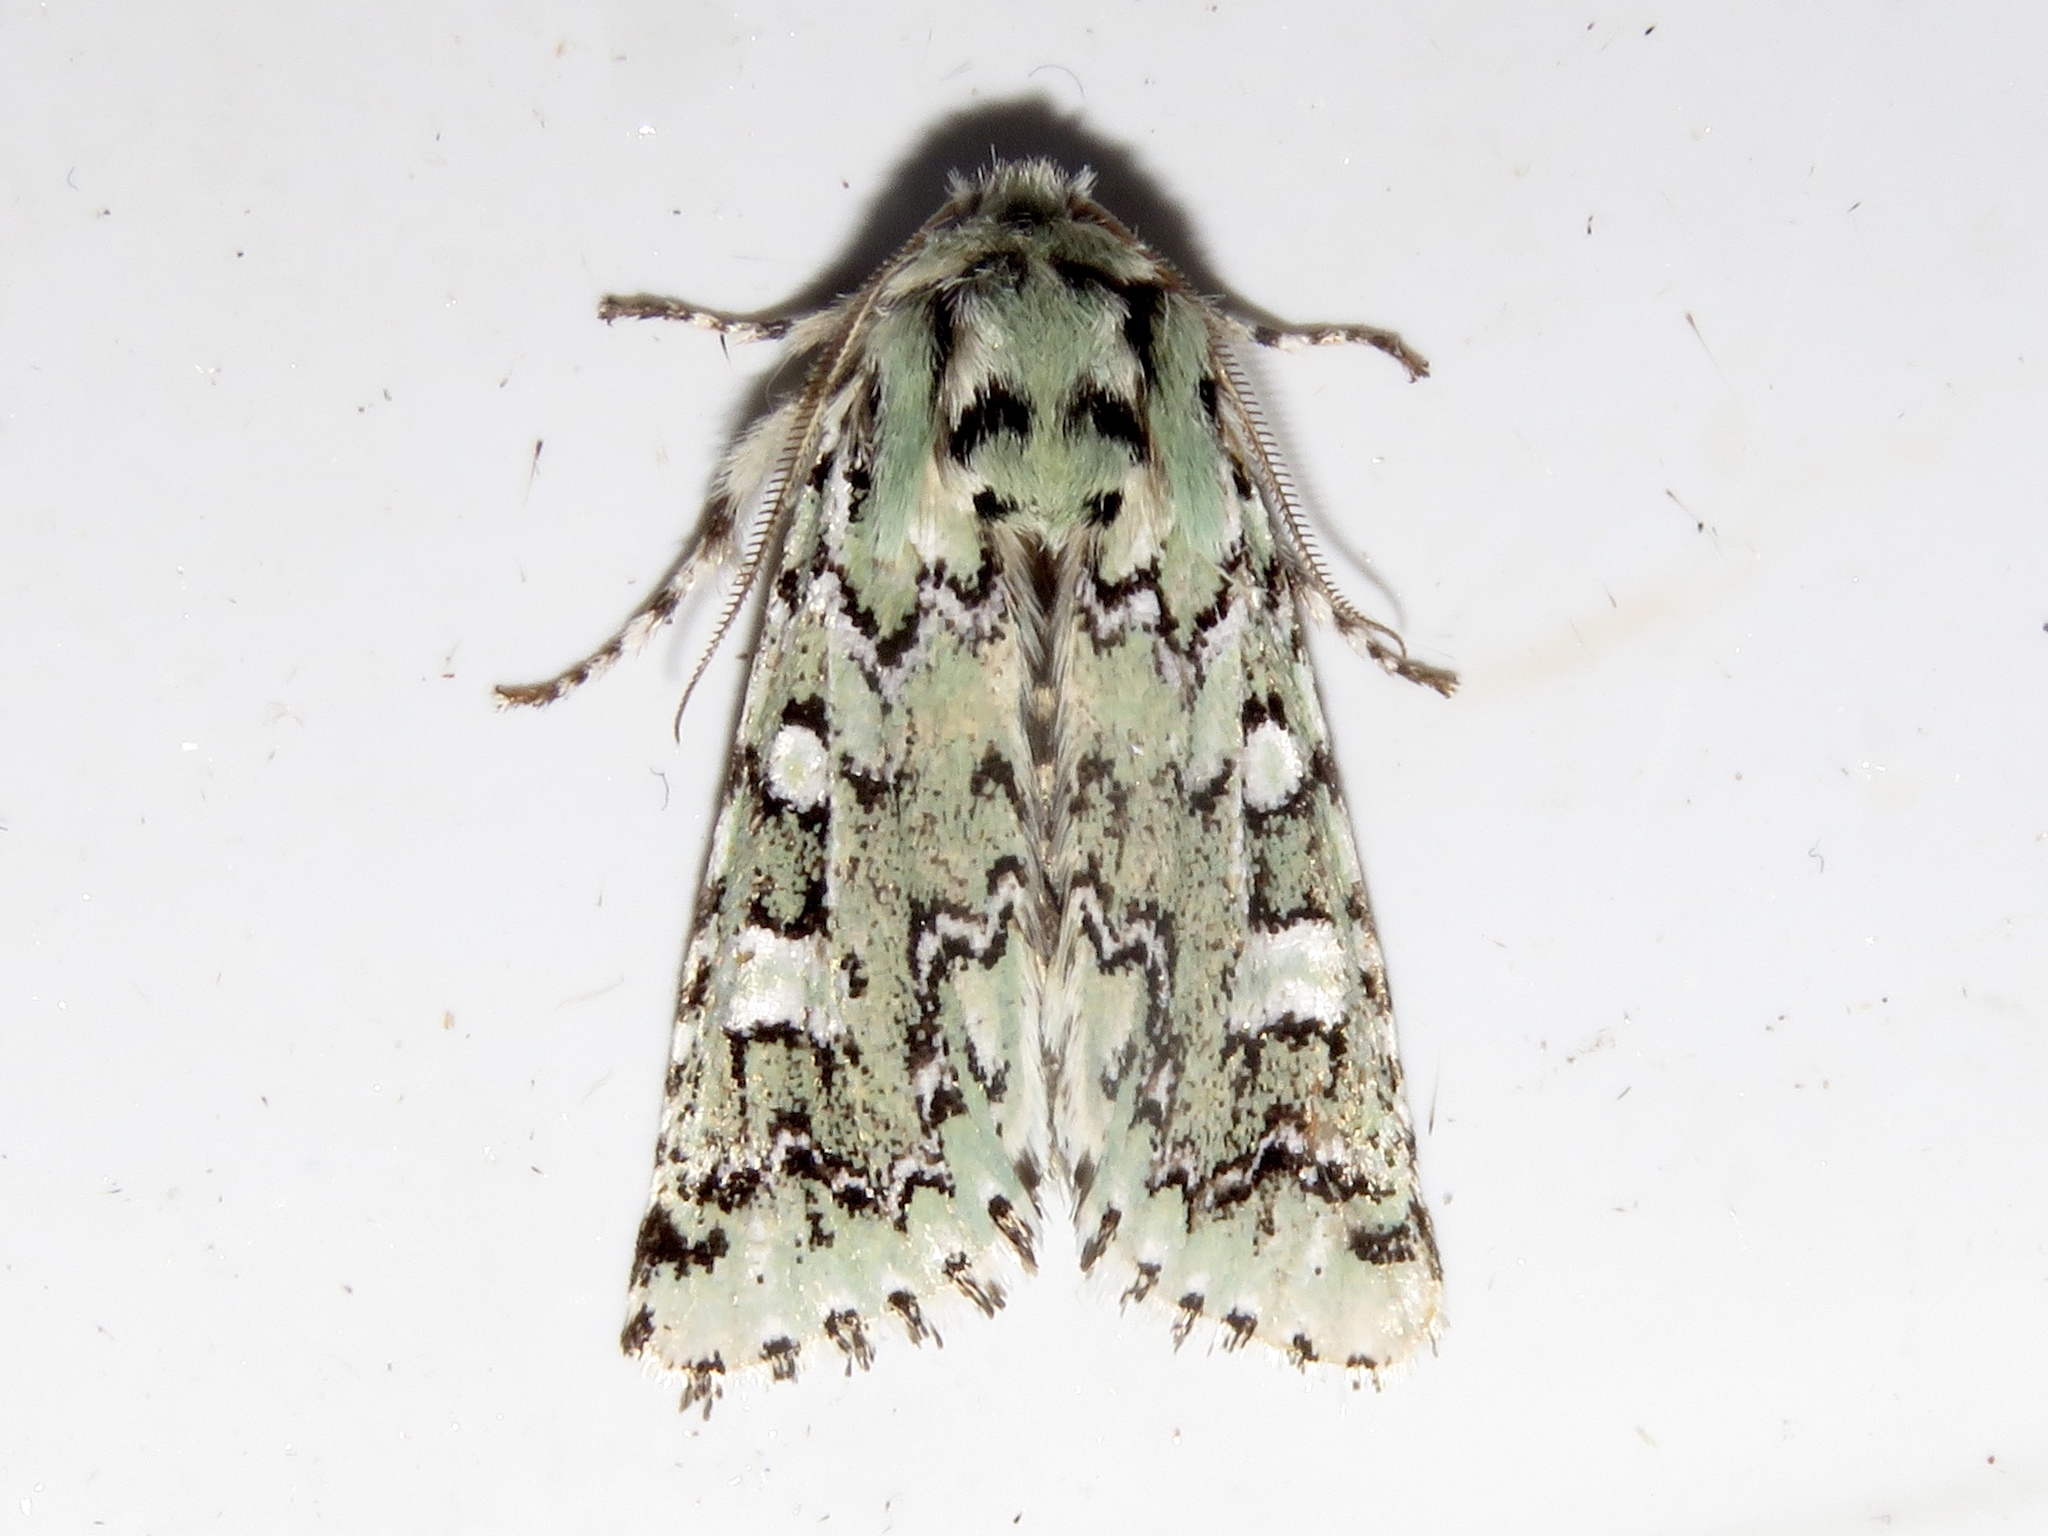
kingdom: Animalia
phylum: Arthropoda
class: Insecta
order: Lepidoptera
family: Noctuidae
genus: Feralia
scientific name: Feralia jocosa
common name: Joker
